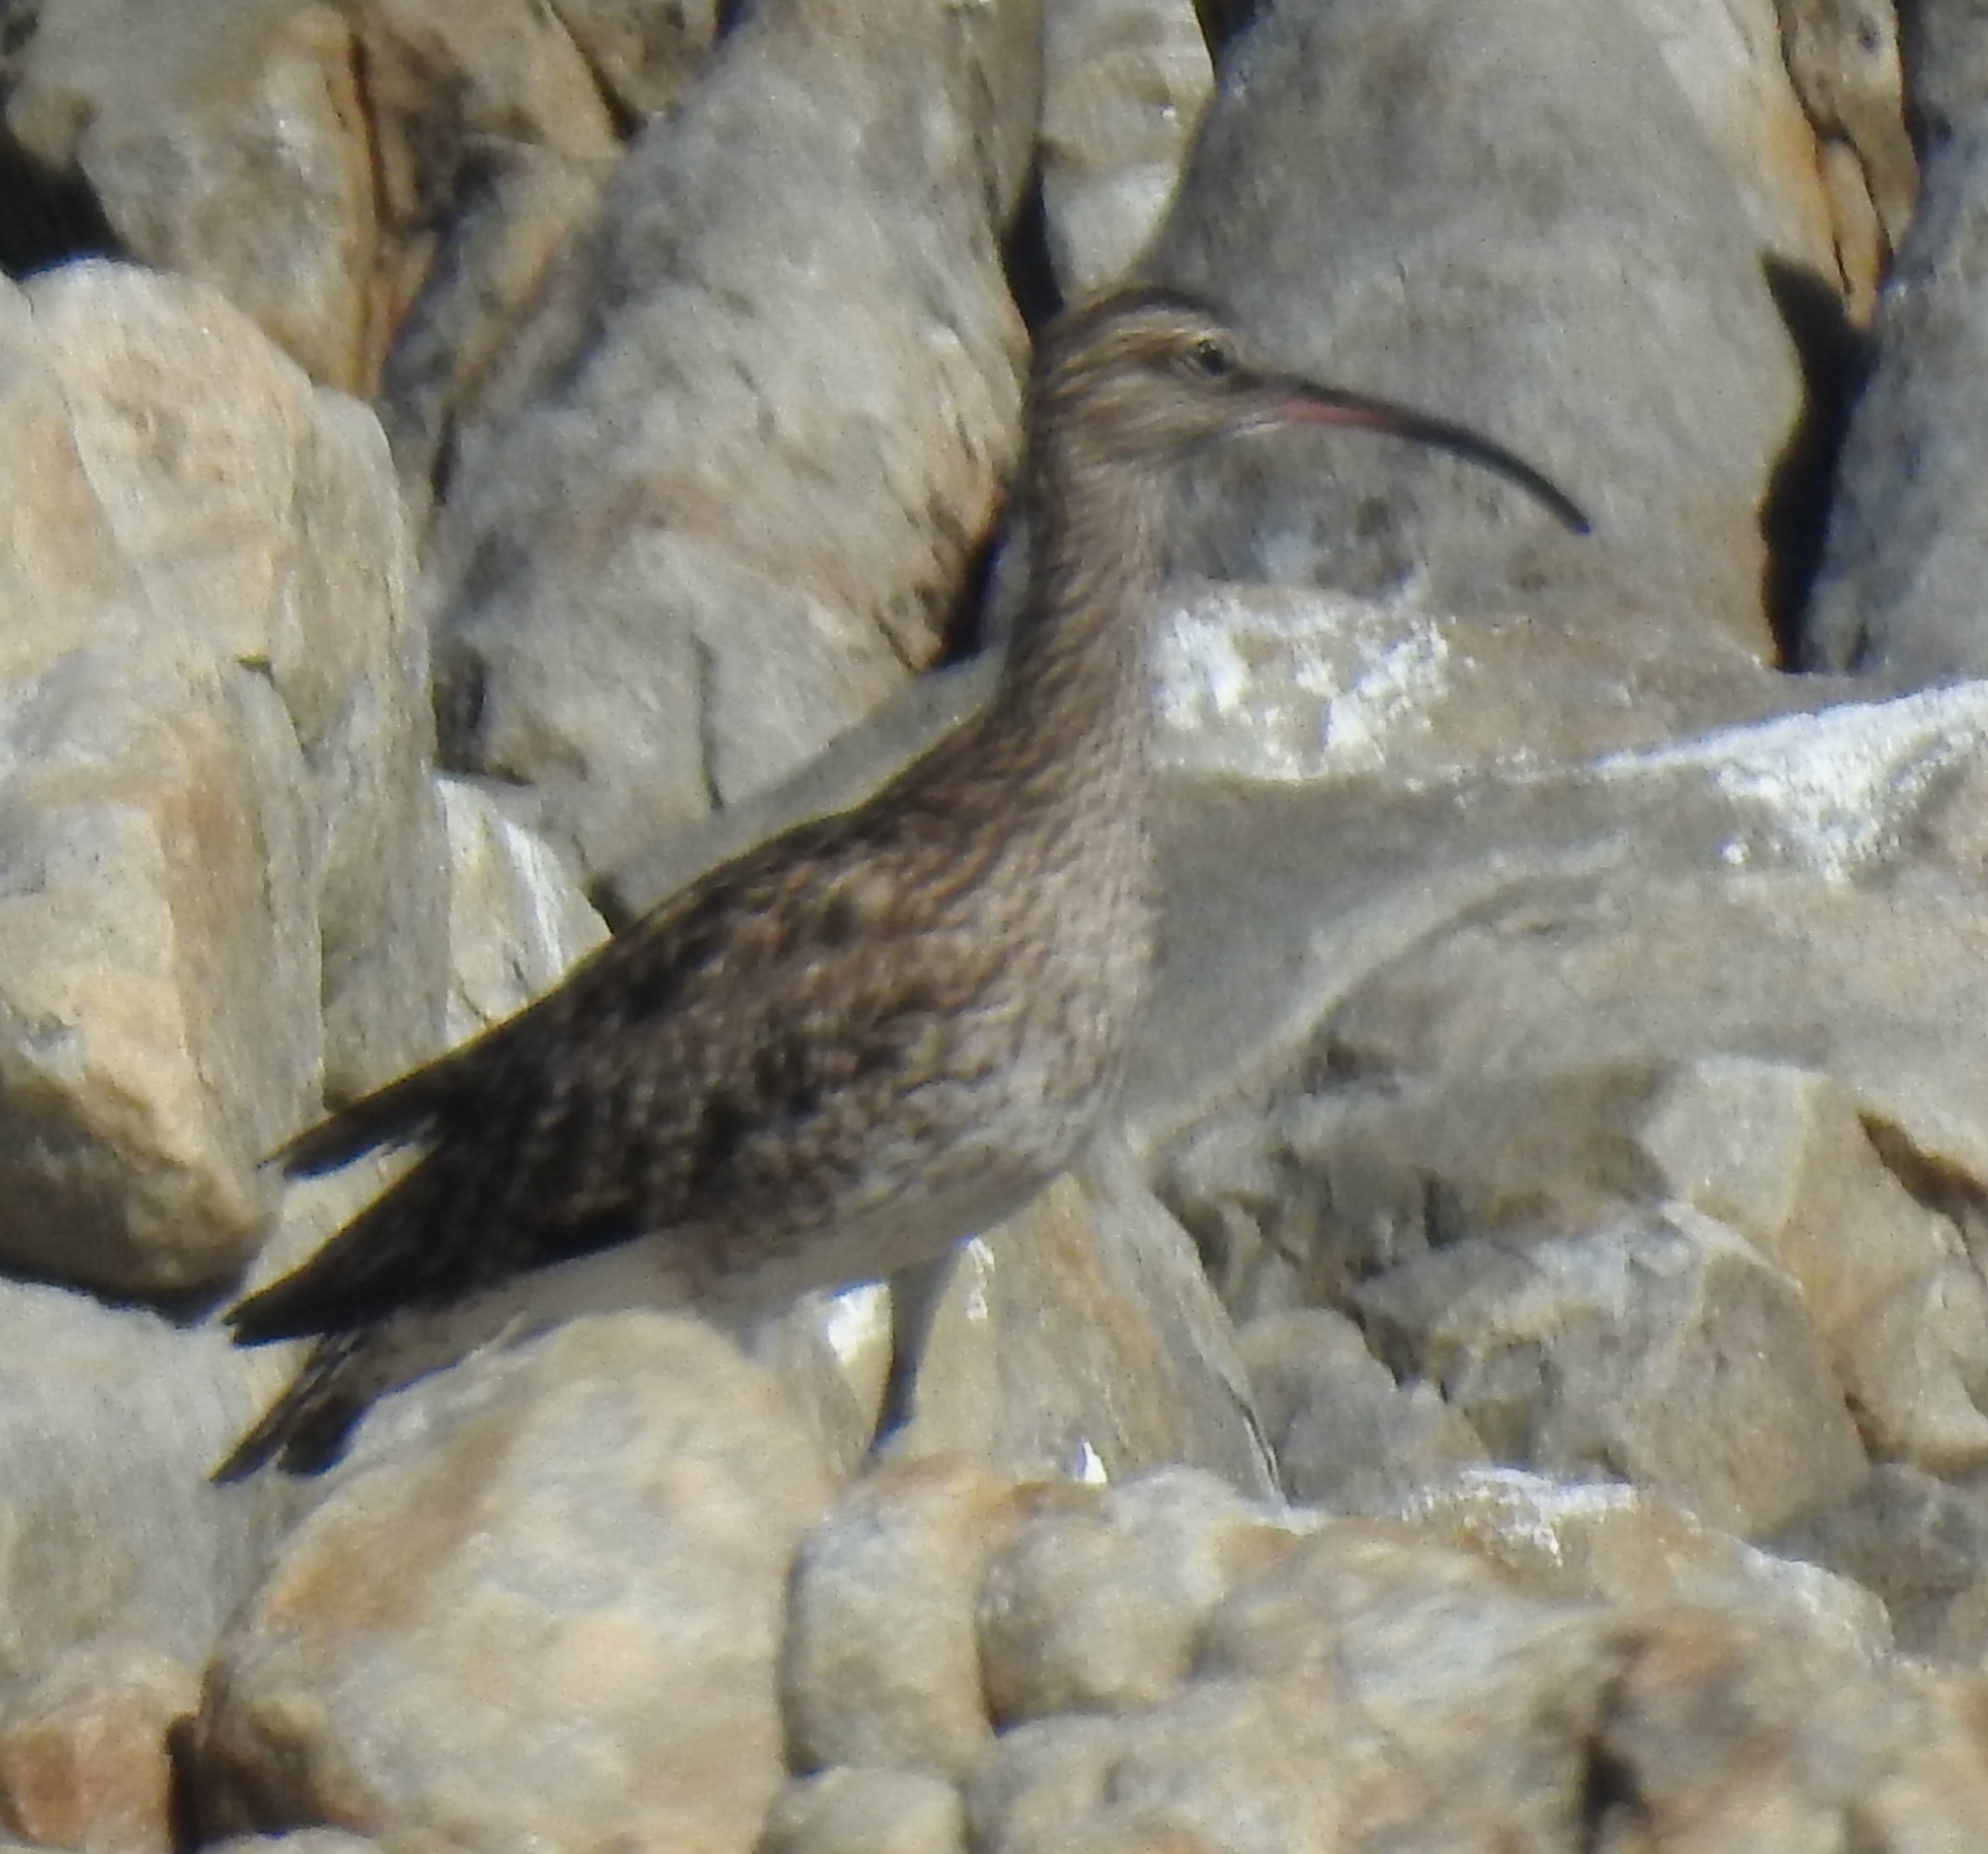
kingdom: Animalia
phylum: Chordata
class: Aves
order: Charadriiformes
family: Scolopacidae
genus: Numenius
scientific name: Numenius phaeopus
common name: Whimbrel
